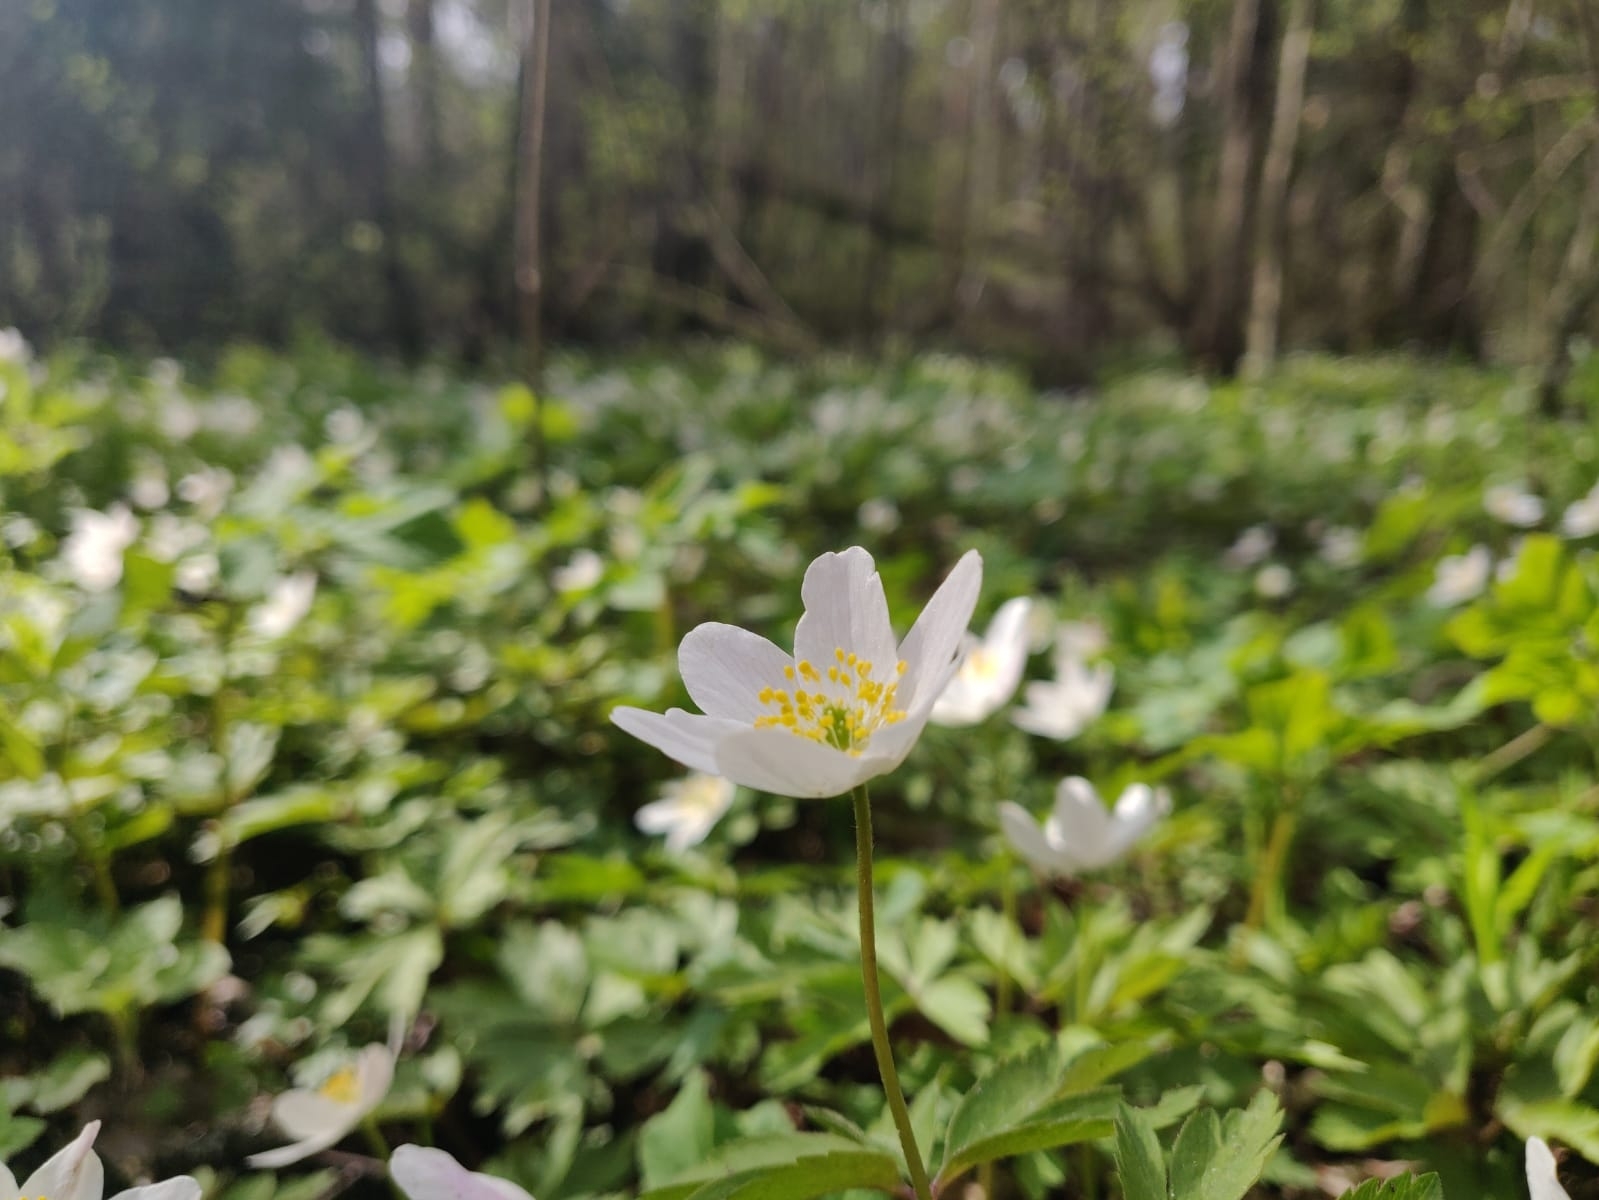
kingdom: Plantae
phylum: Tracheophyta
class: Magnoliopsida
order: Ranunculales
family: Ranunculaceae
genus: Anemone
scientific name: Anemone nemorosa
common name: Wood anemone
